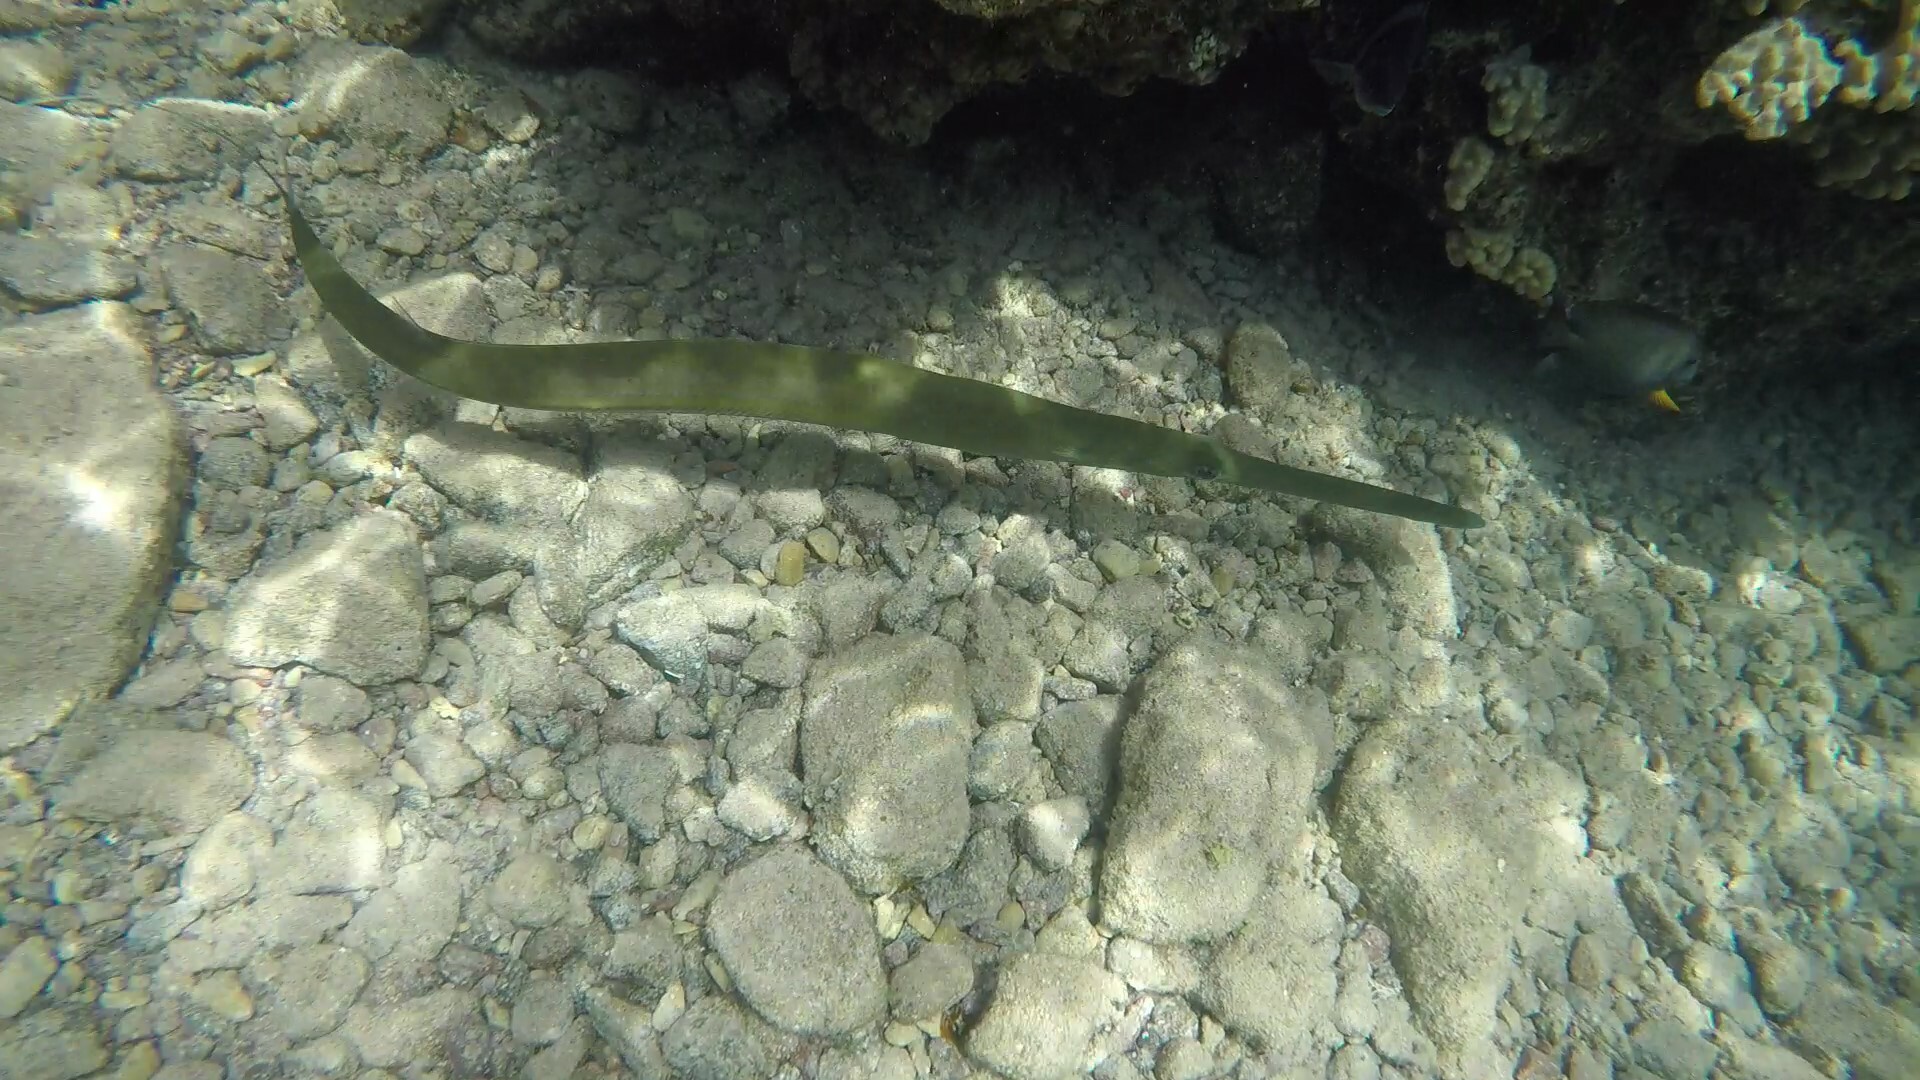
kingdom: Animalia
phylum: Chordata
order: Syngnathiformes
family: Fistulariidae
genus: Fistularia
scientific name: Fistularia commersonii
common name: Bluespotted cornetfish
